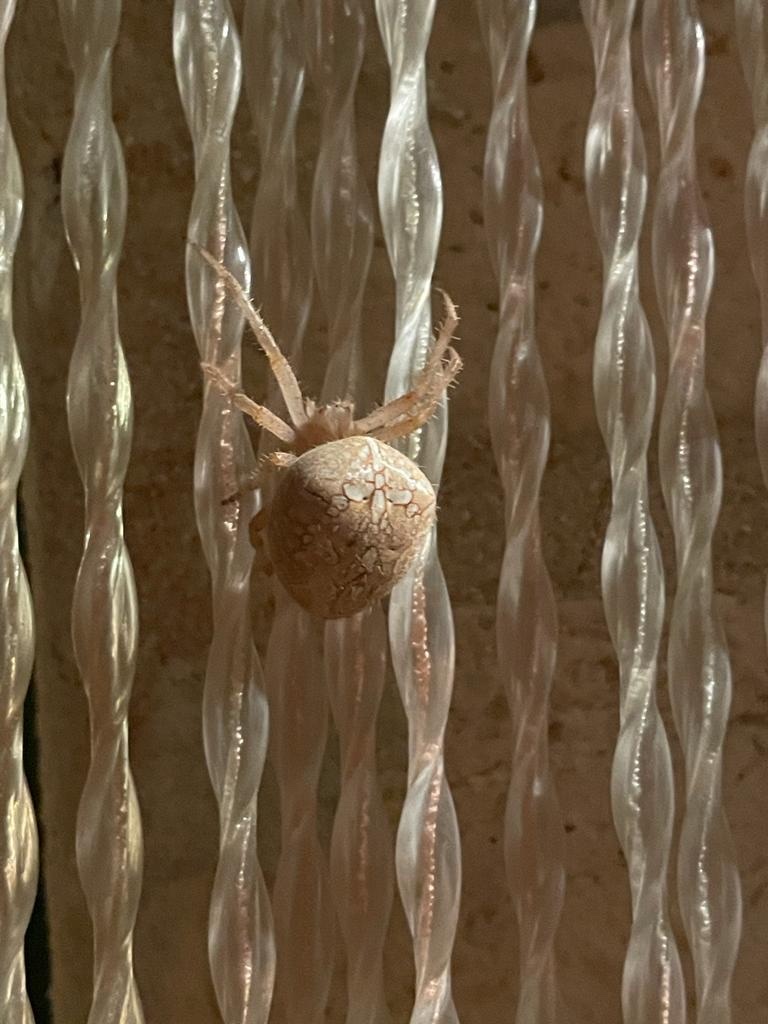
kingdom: Animalia
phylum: Arthropoda
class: Arachnida
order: Araneae
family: Araneidae
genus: Araneus
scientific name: Araneus diadematus
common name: Cross orbweaver
